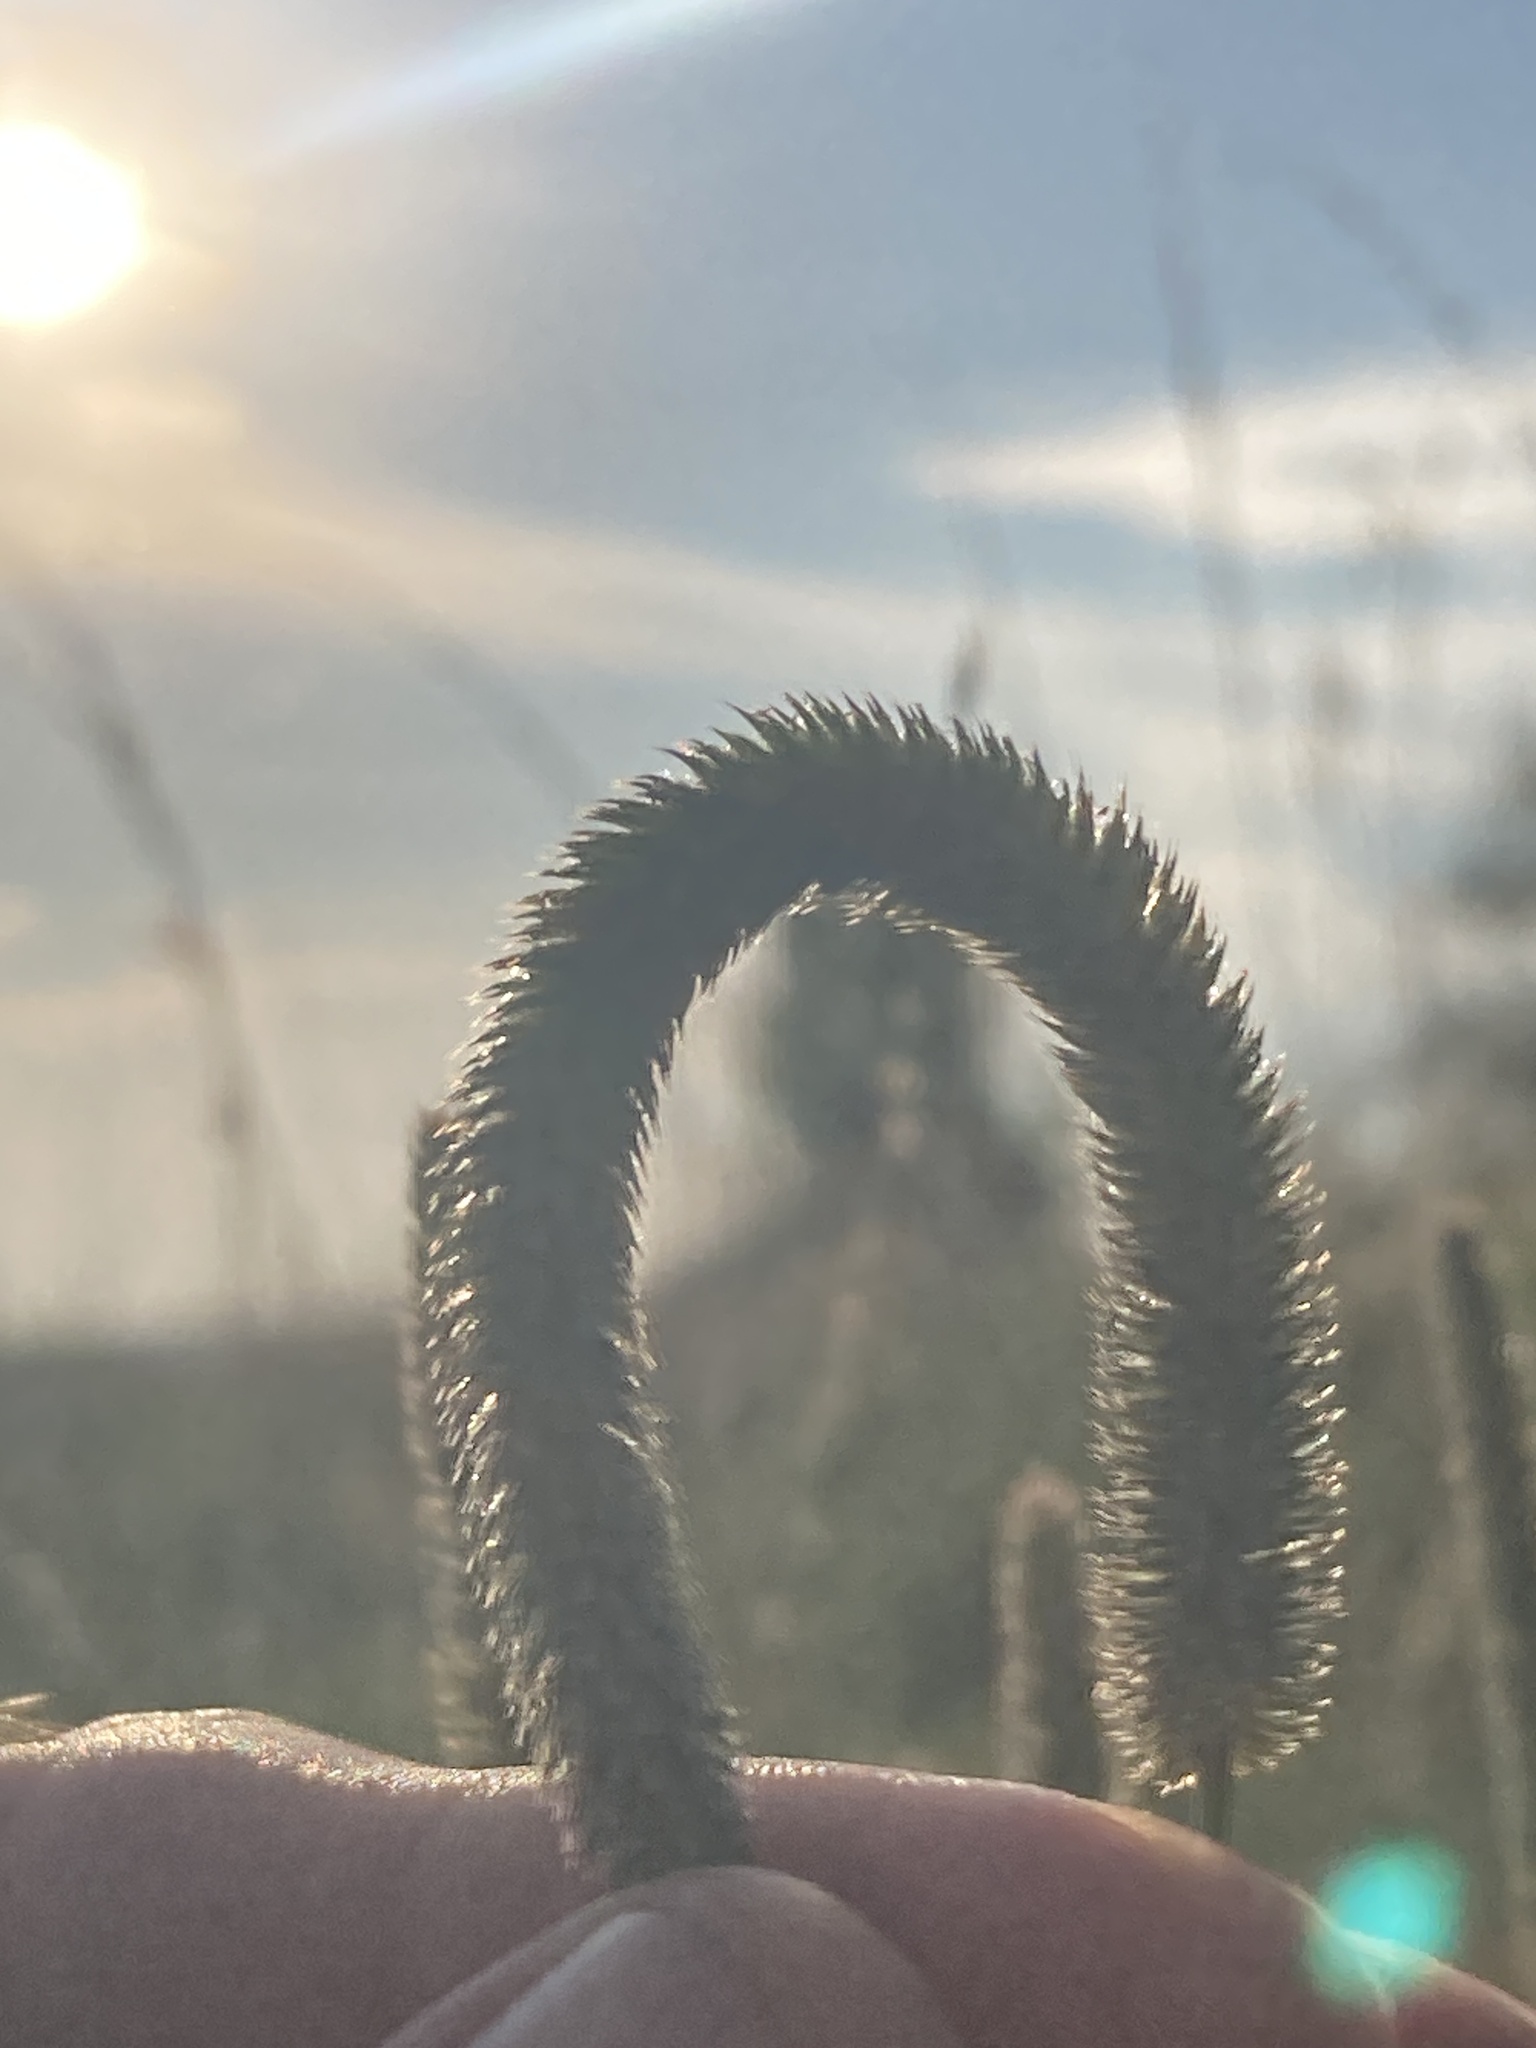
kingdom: Plantae
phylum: Tracheophyta
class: Liliopsida
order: Poales
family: Poaceae
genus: Phleum
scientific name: Phleum pratense
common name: Timothy grass
